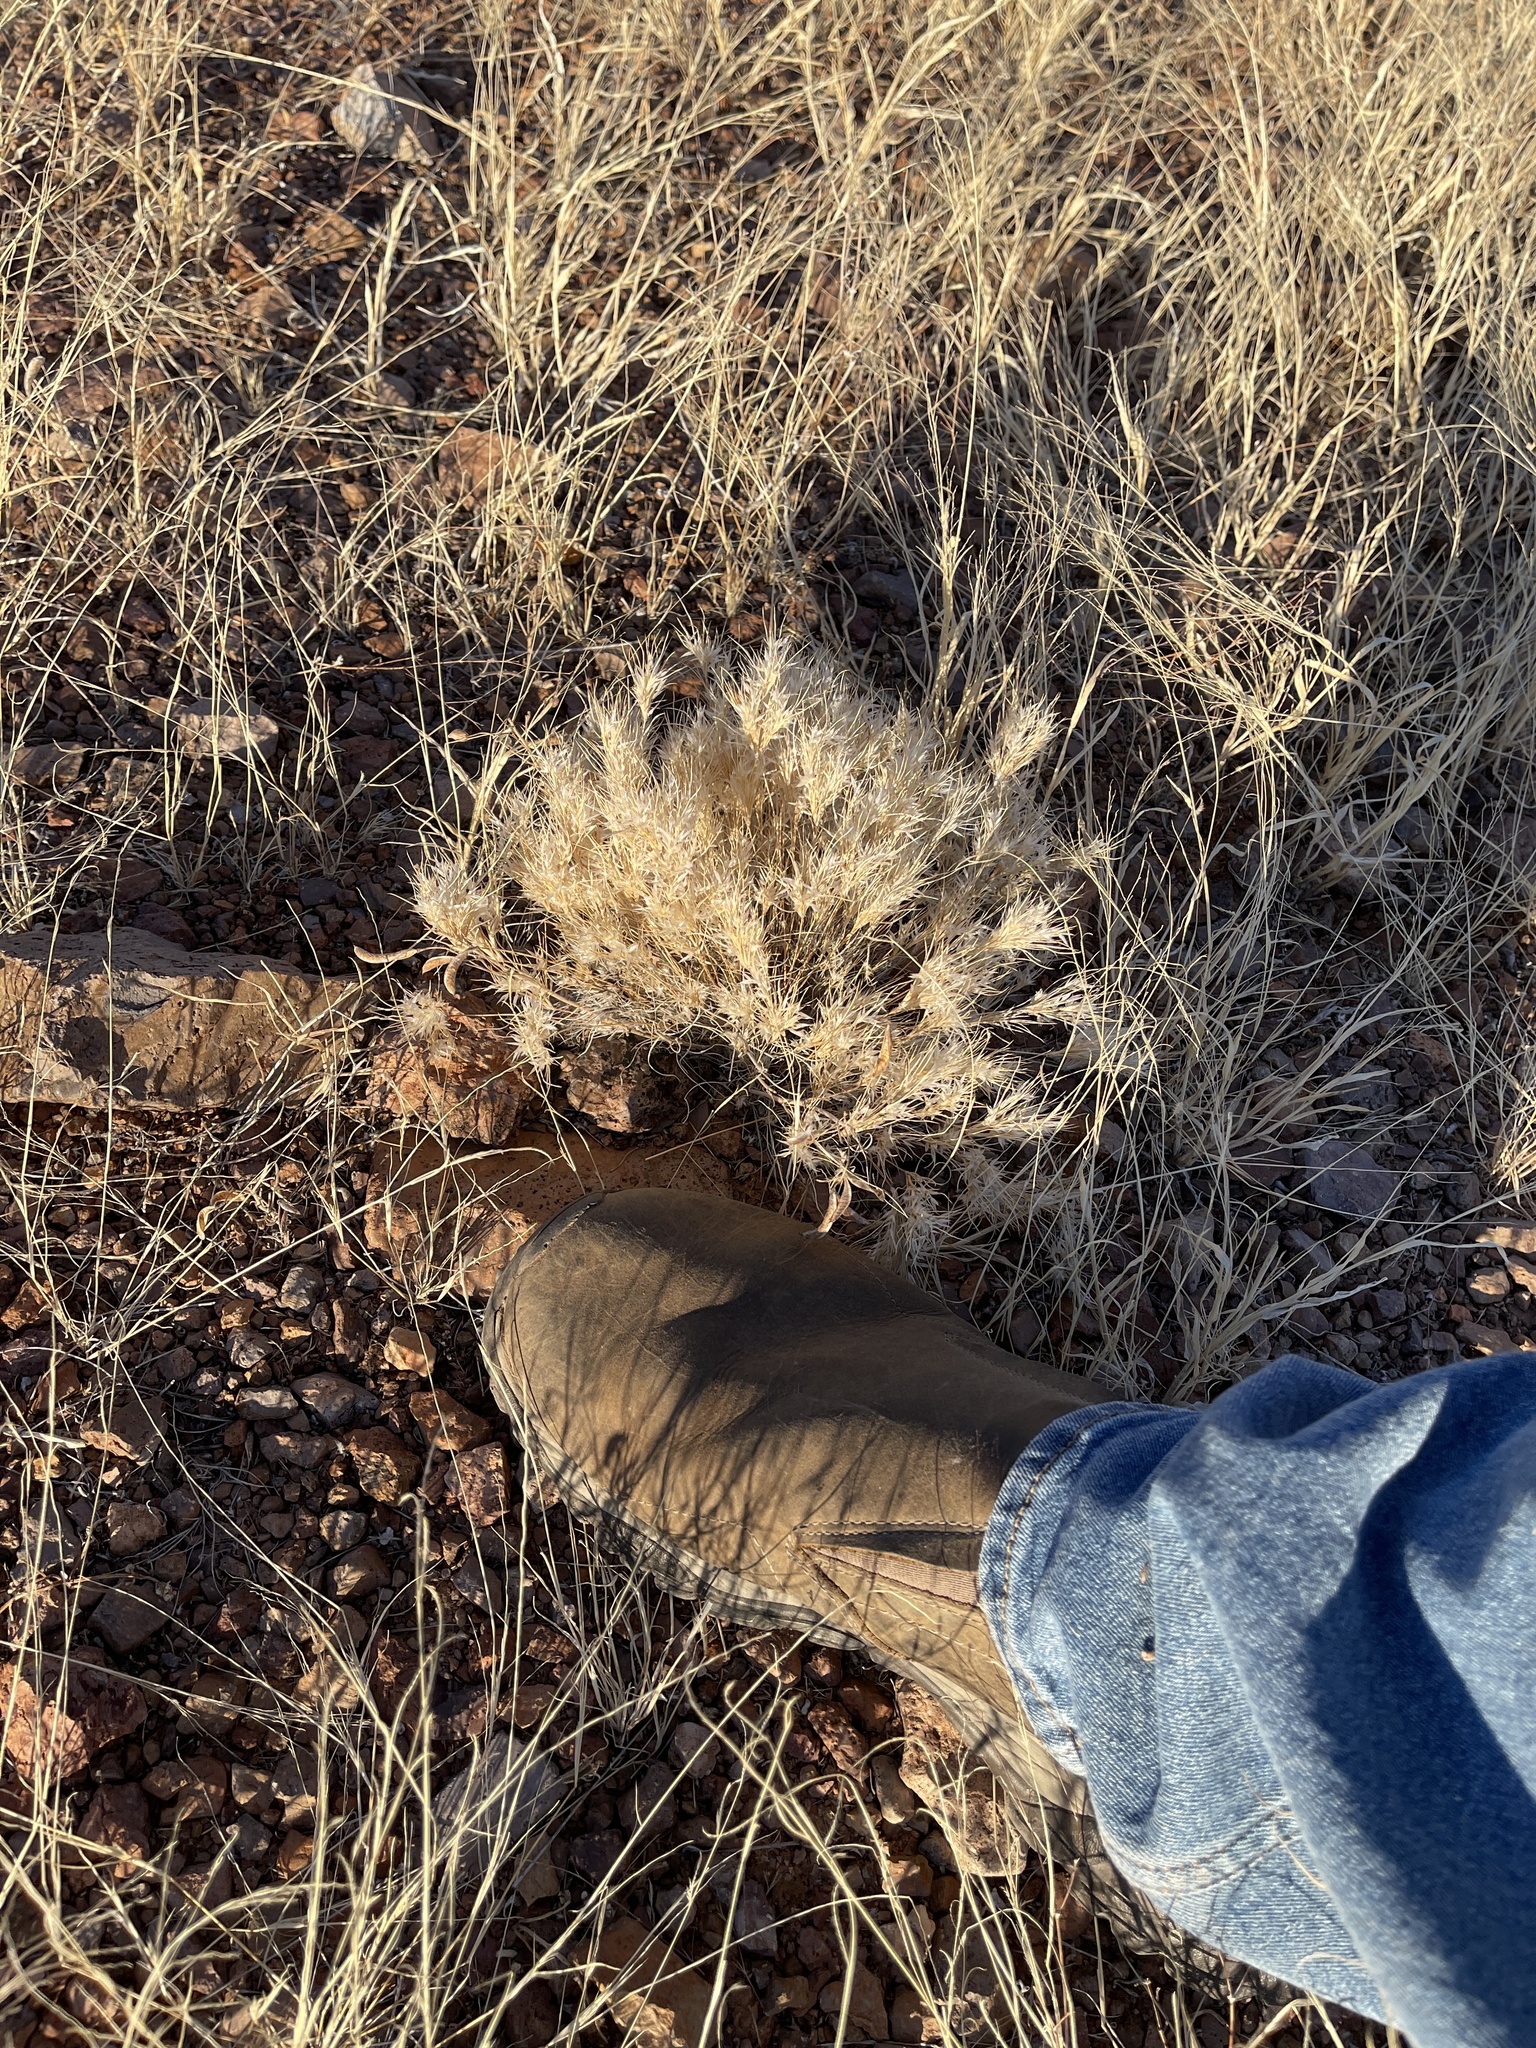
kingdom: Plantae
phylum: Tracheophyta
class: Liliopsida
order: Poales
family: Poaceae
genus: Dasyochloa
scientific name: Dasyochloa pulchella
